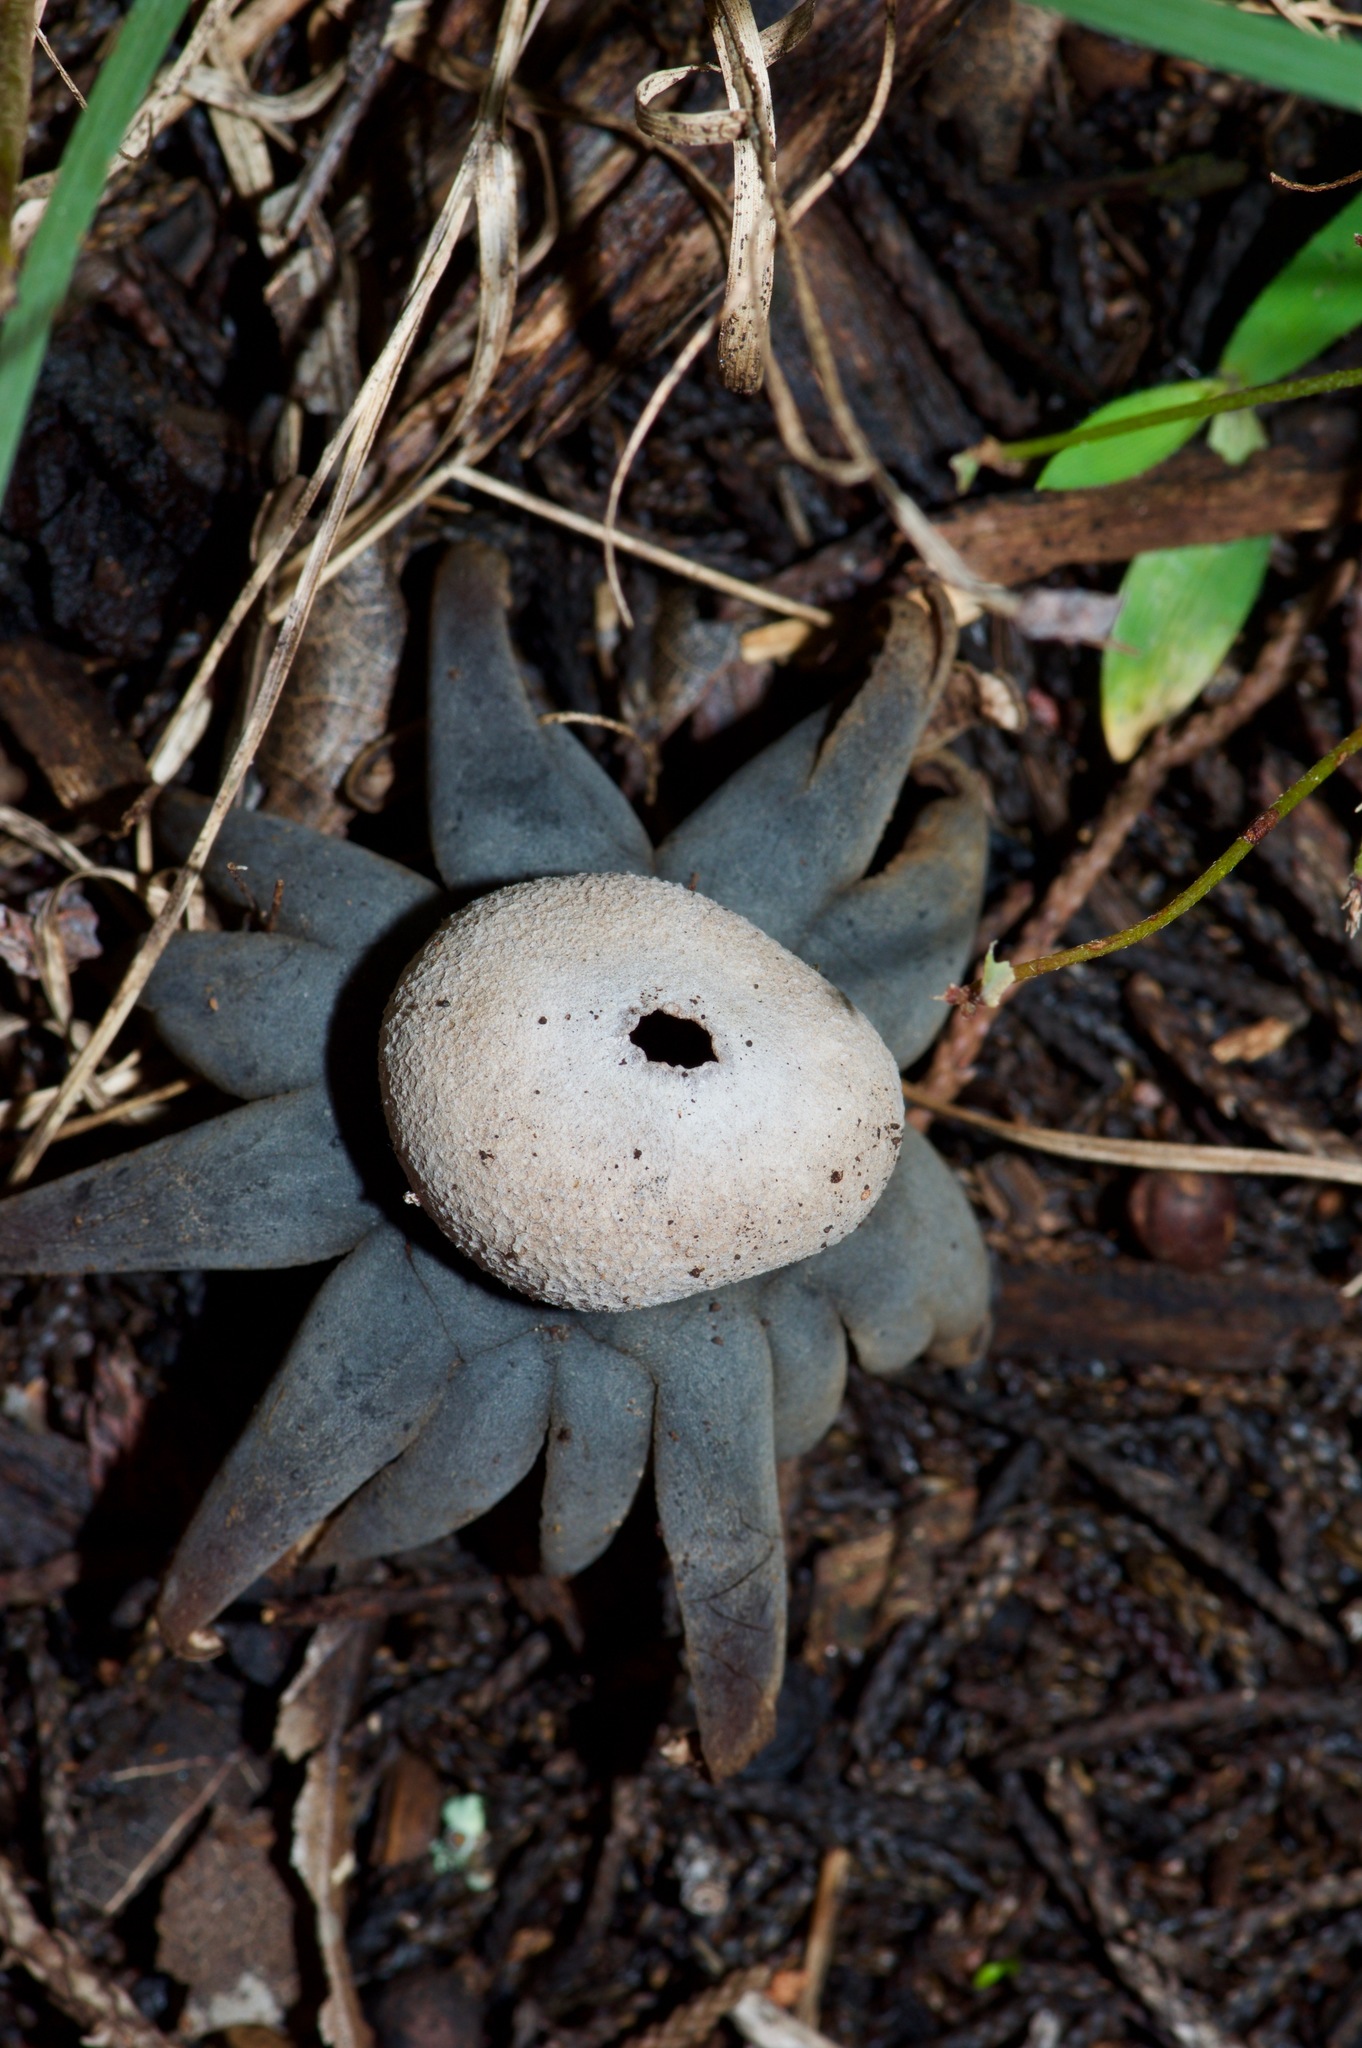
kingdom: Fungi
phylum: Basidiomycota
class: Agaricomycetes
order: Boletales
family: Diplocystidiaceae
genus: Astraeus
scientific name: Astraeus morganii
